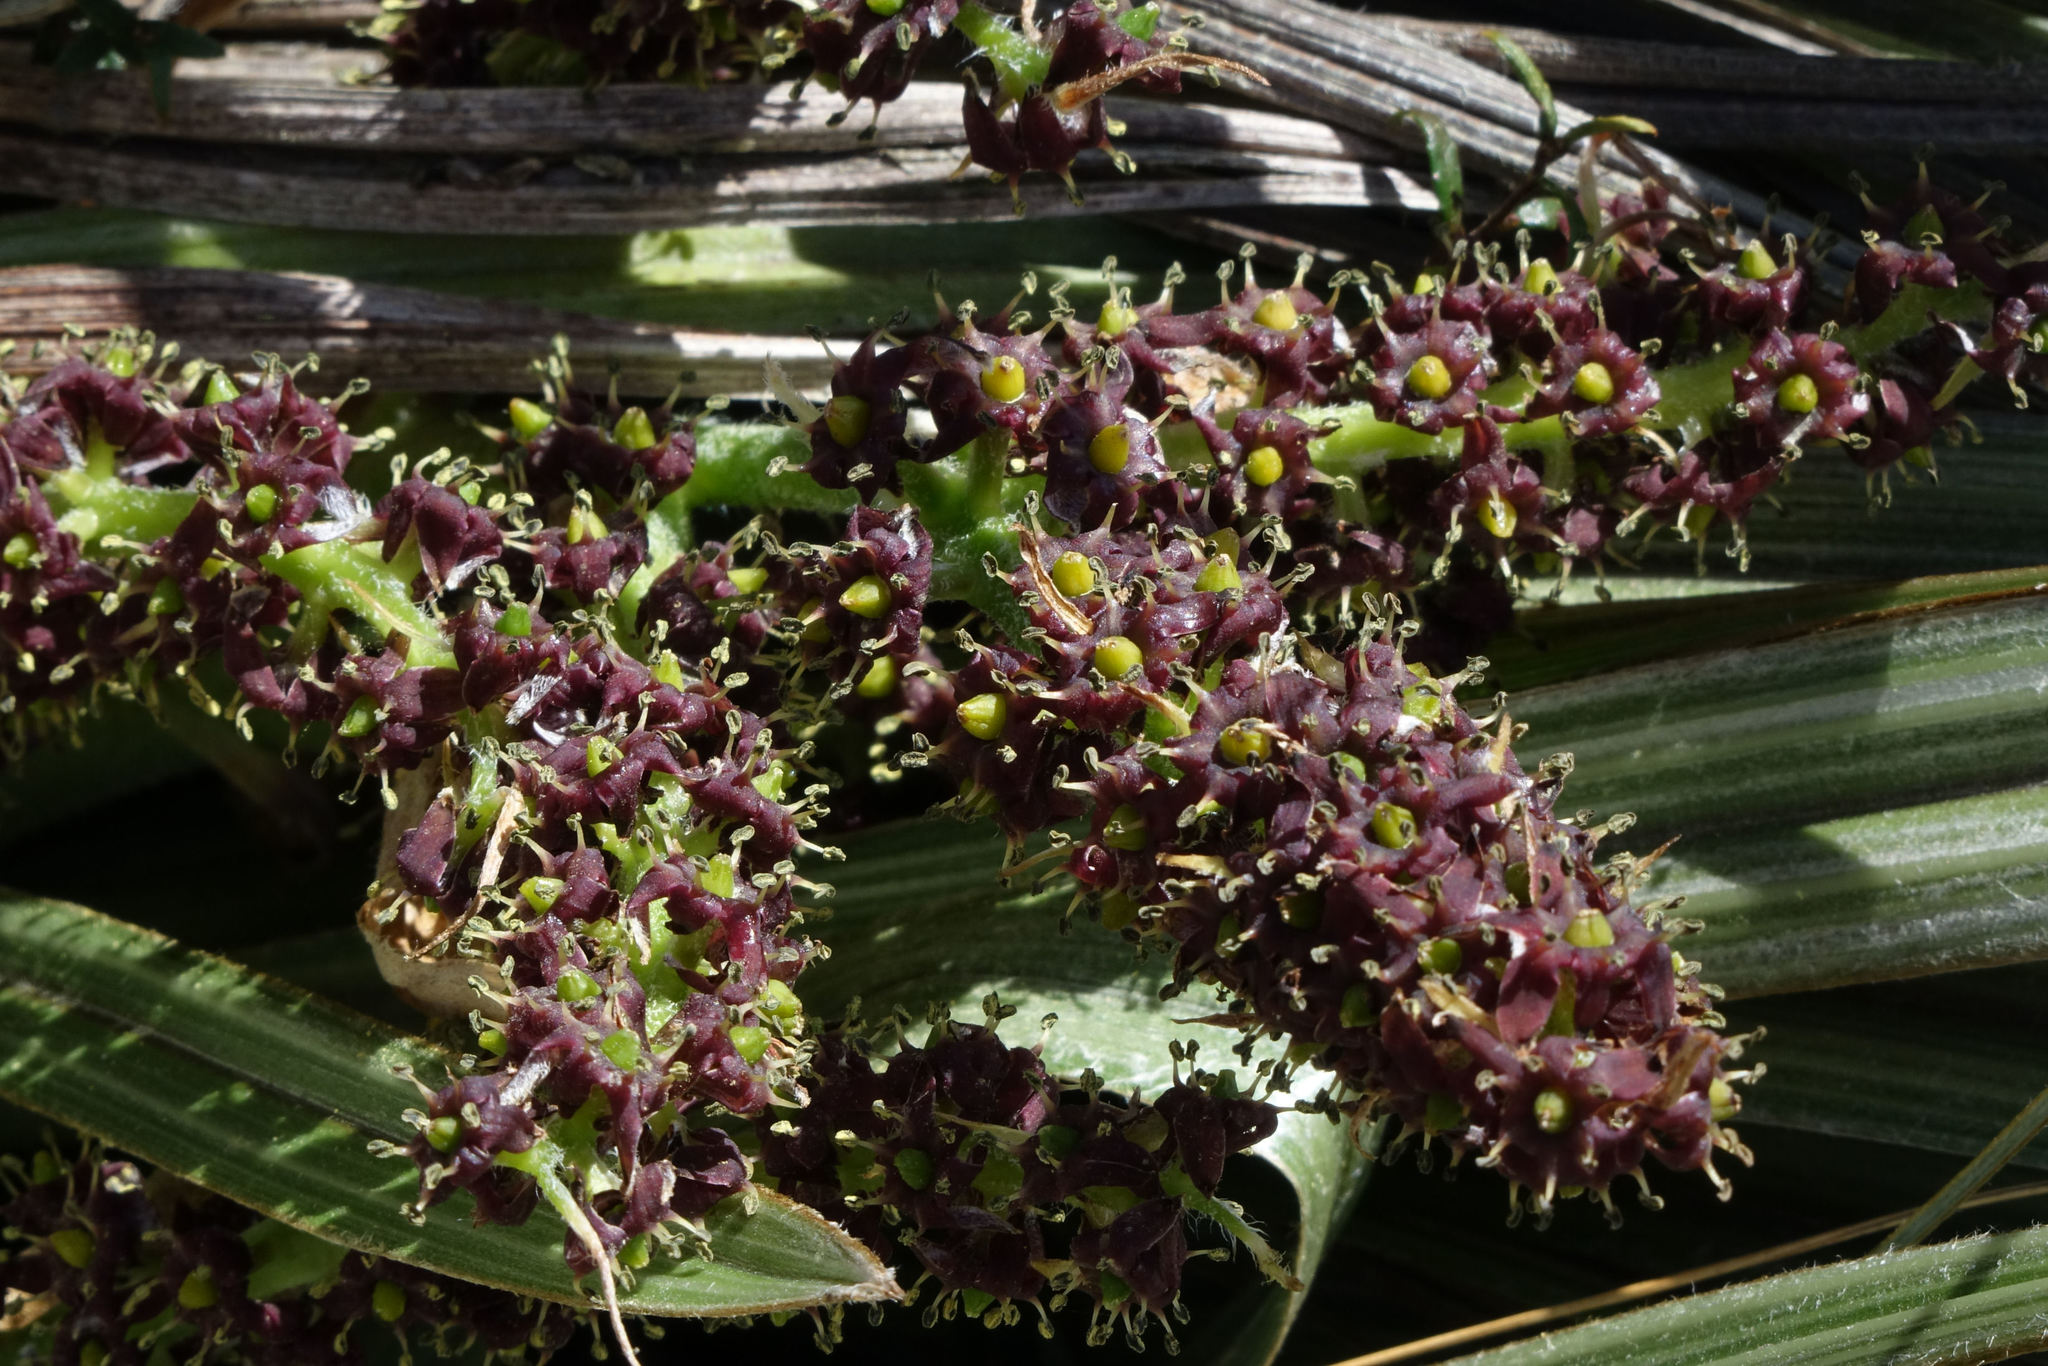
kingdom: Plantae
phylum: Tracheophyta
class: Liliopsida
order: Asparagales
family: Asteliaceae
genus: Astelia
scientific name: Astelia nervosa
